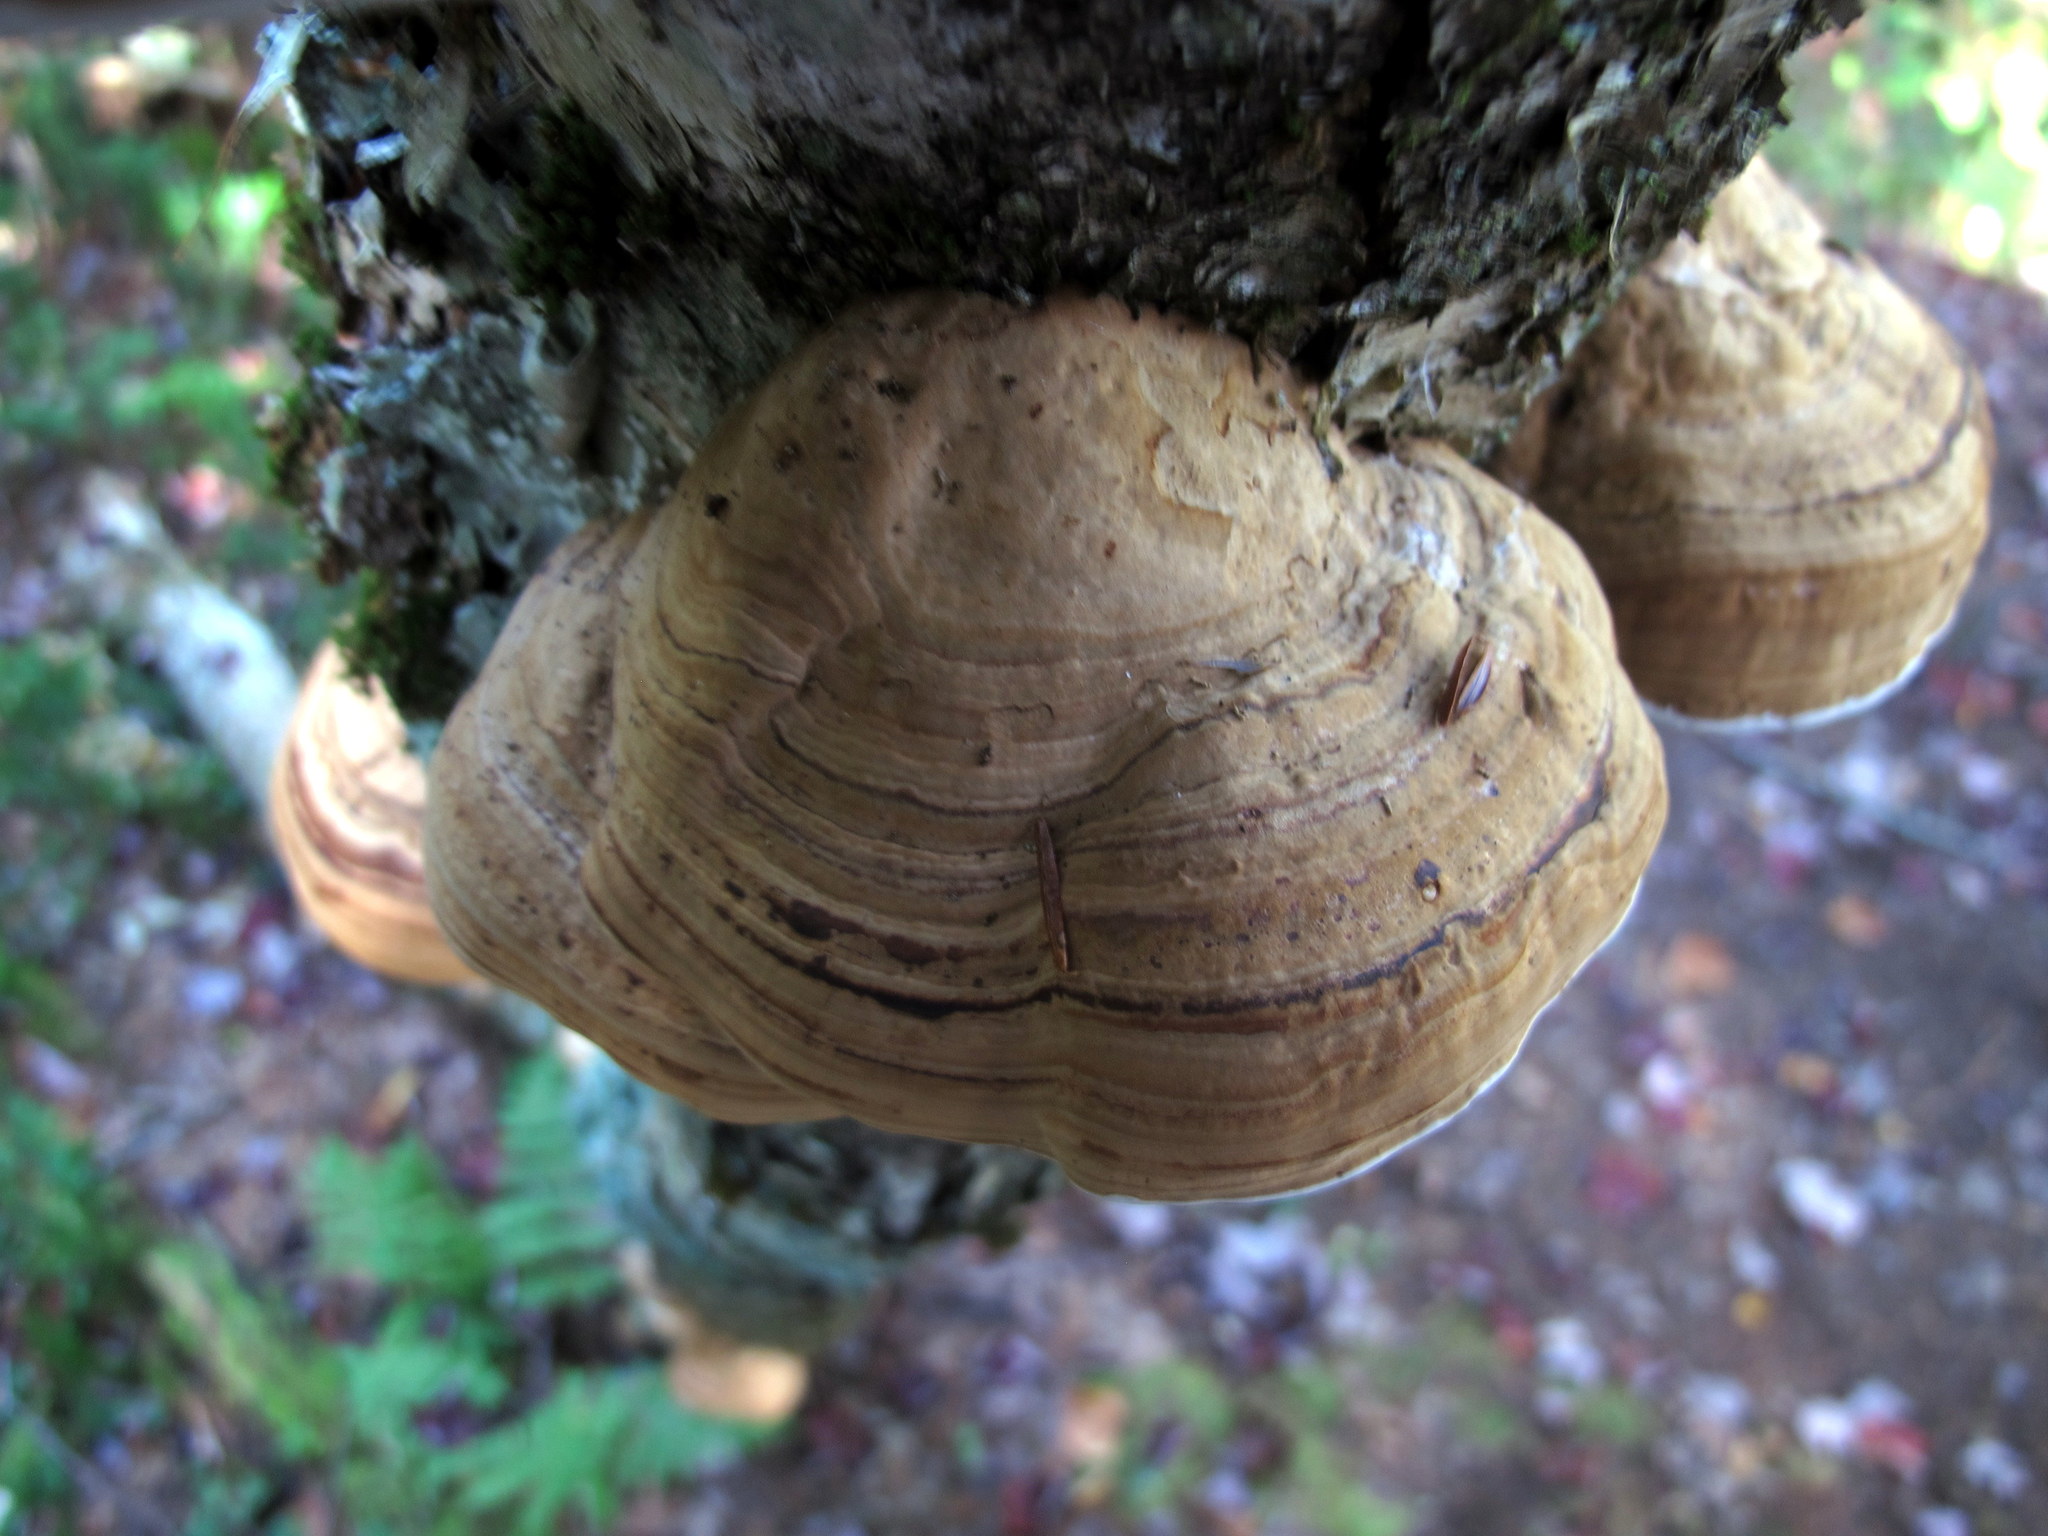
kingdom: Fungi
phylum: Basidiomycota
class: Agaricomycetes
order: Polyporales
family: Polyporaceae
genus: Fomes
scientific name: Fomes fomentarius
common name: Hoof fungus
